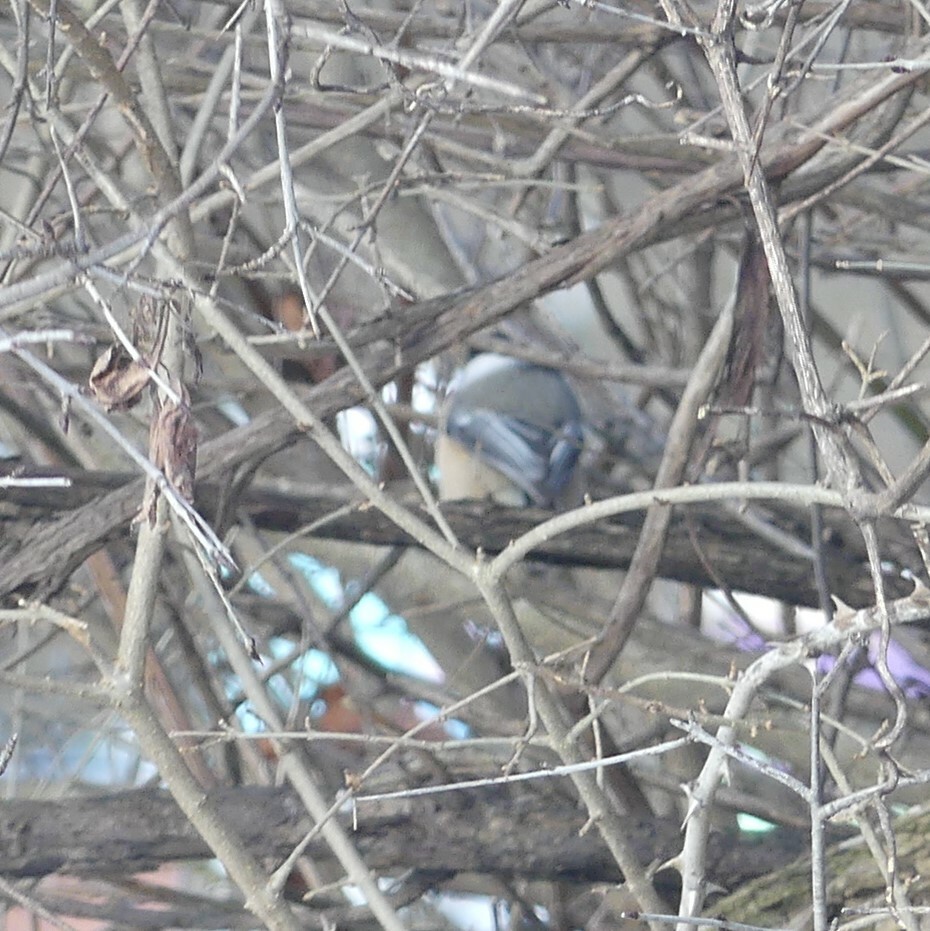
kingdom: Animalia
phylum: Chordata
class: Aves
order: Passeriformes
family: Paridae
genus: Poecile
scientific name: Poecile atricapillus
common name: Black-capped chickadee
